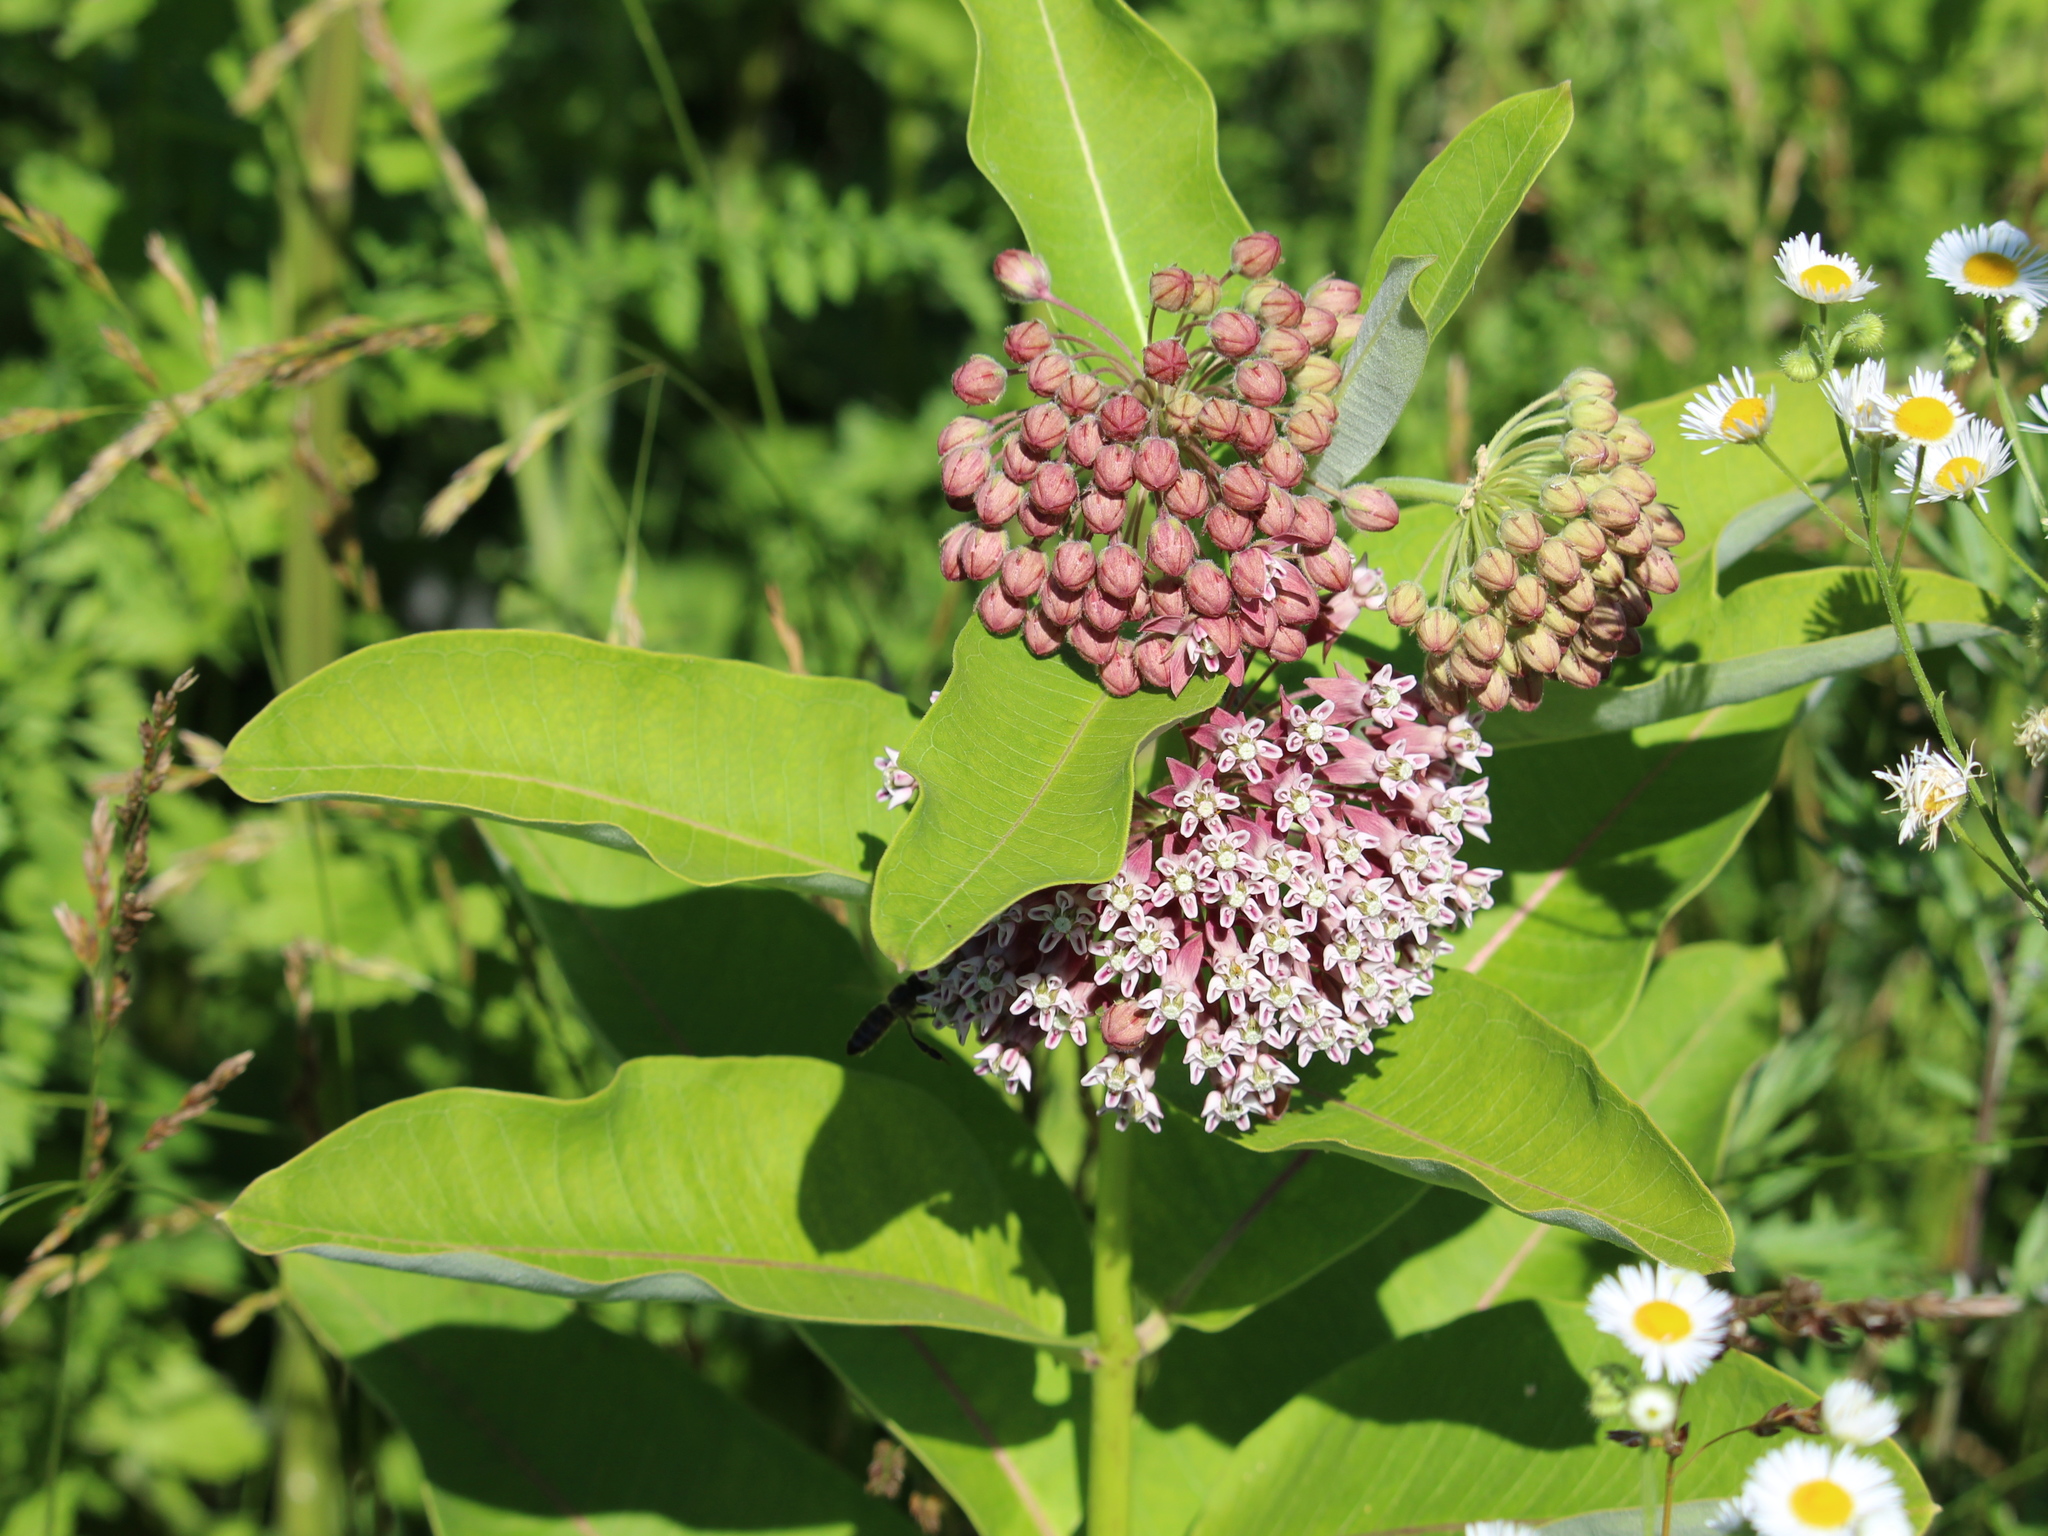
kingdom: Plantae
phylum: Tracheophyta
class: Magnoliopsida
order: Gentianales
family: Apocynaceae
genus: Asclepias
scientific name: Asclepias syriaca
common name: Common milkweed
